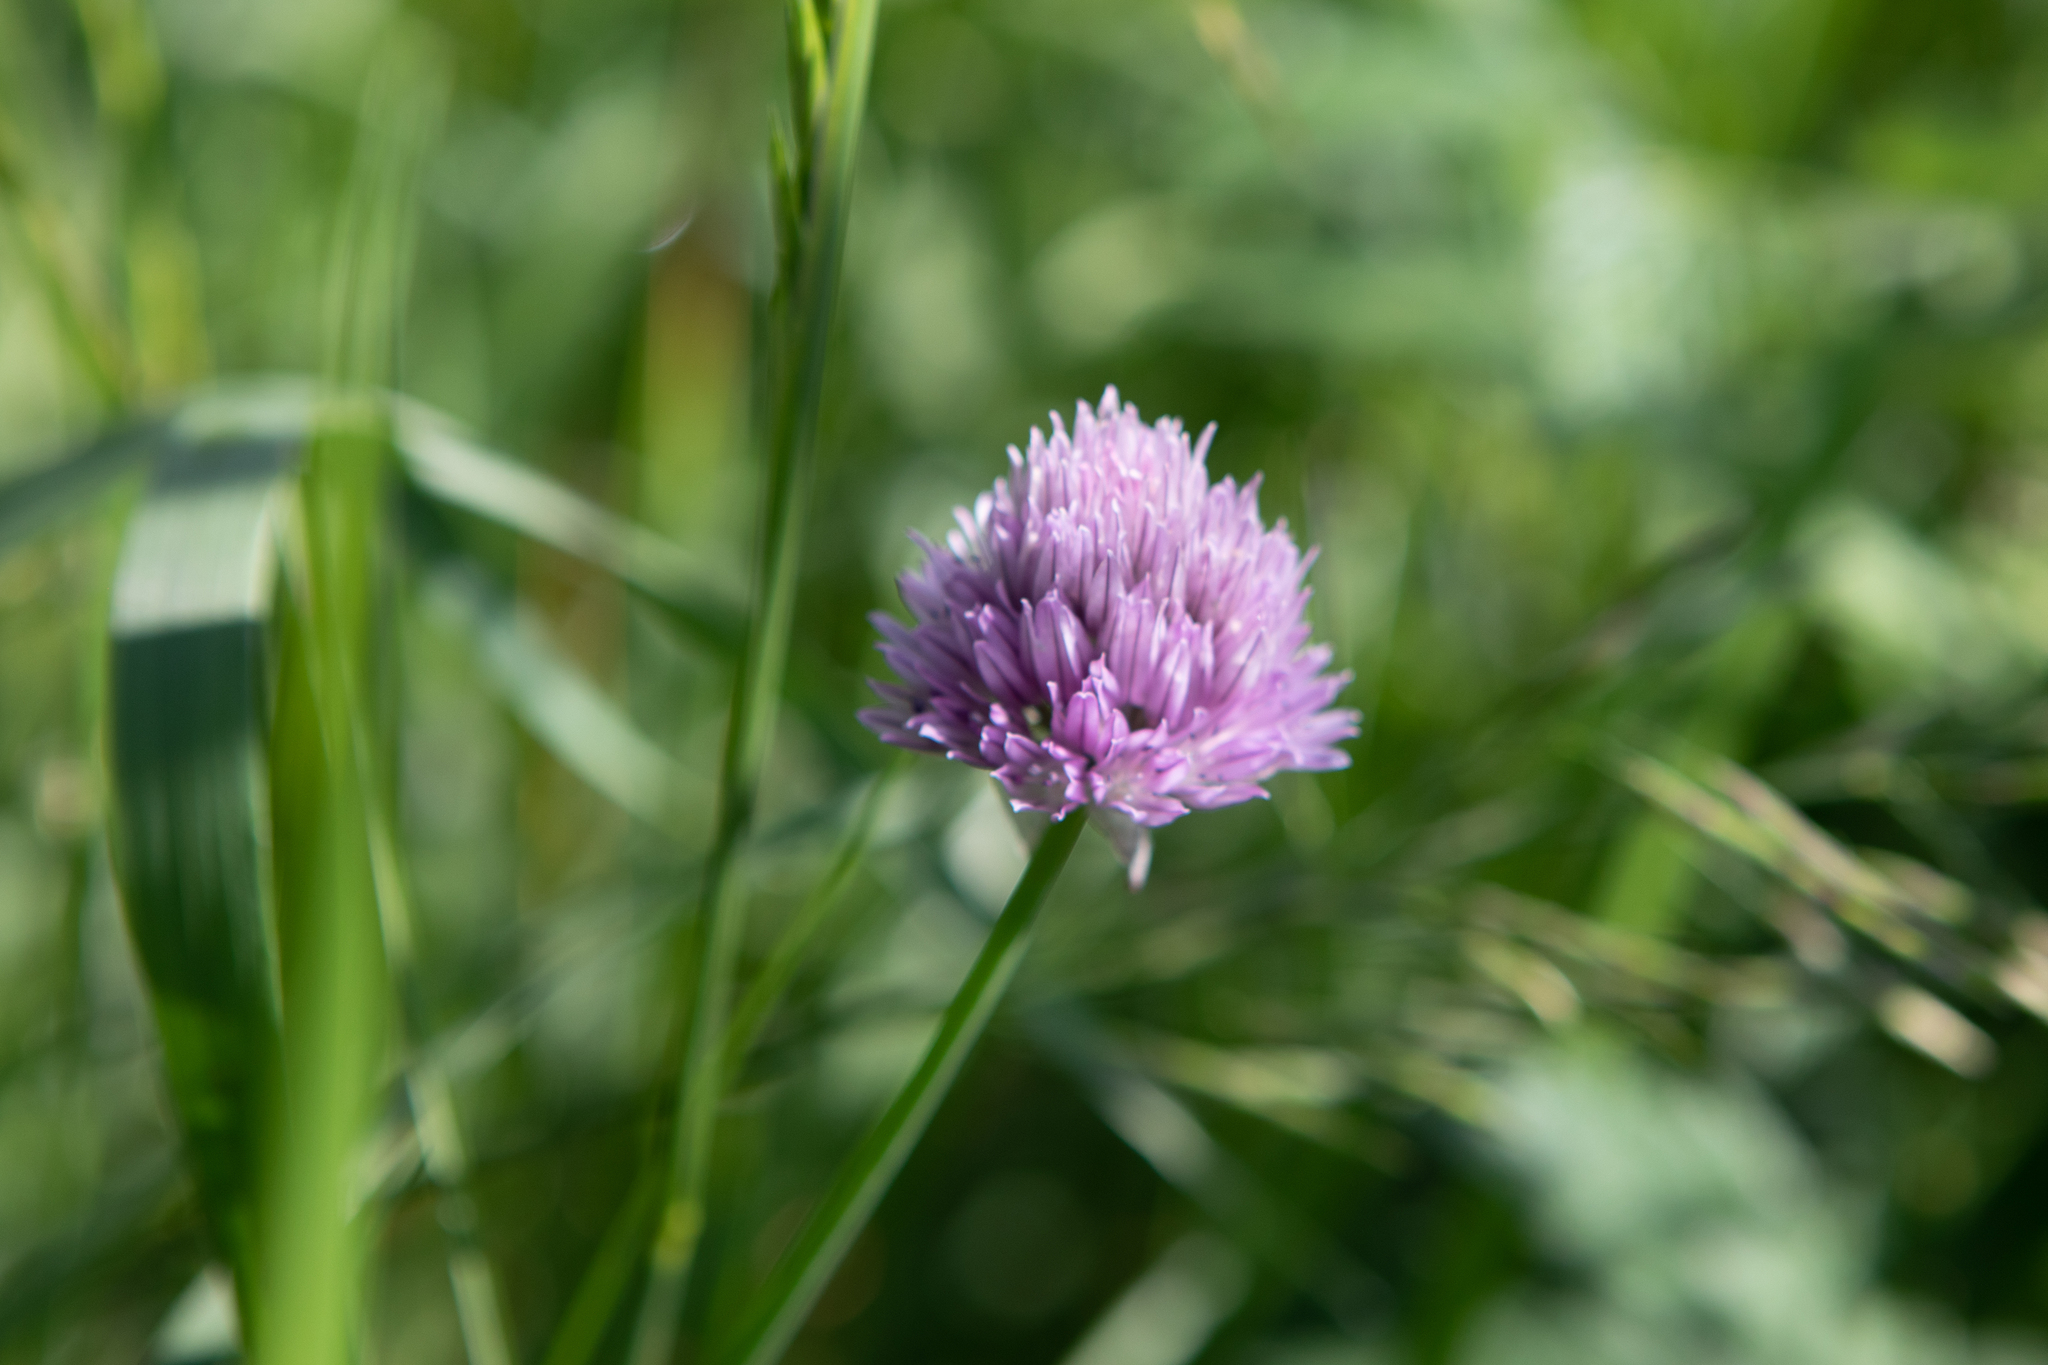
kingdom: Plantae
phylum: Tracheophyta
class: Liliopsida
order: Asparagales
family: Amaryllidaceae
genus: Allium
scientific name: Allium schoenoprasum
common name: Chives
